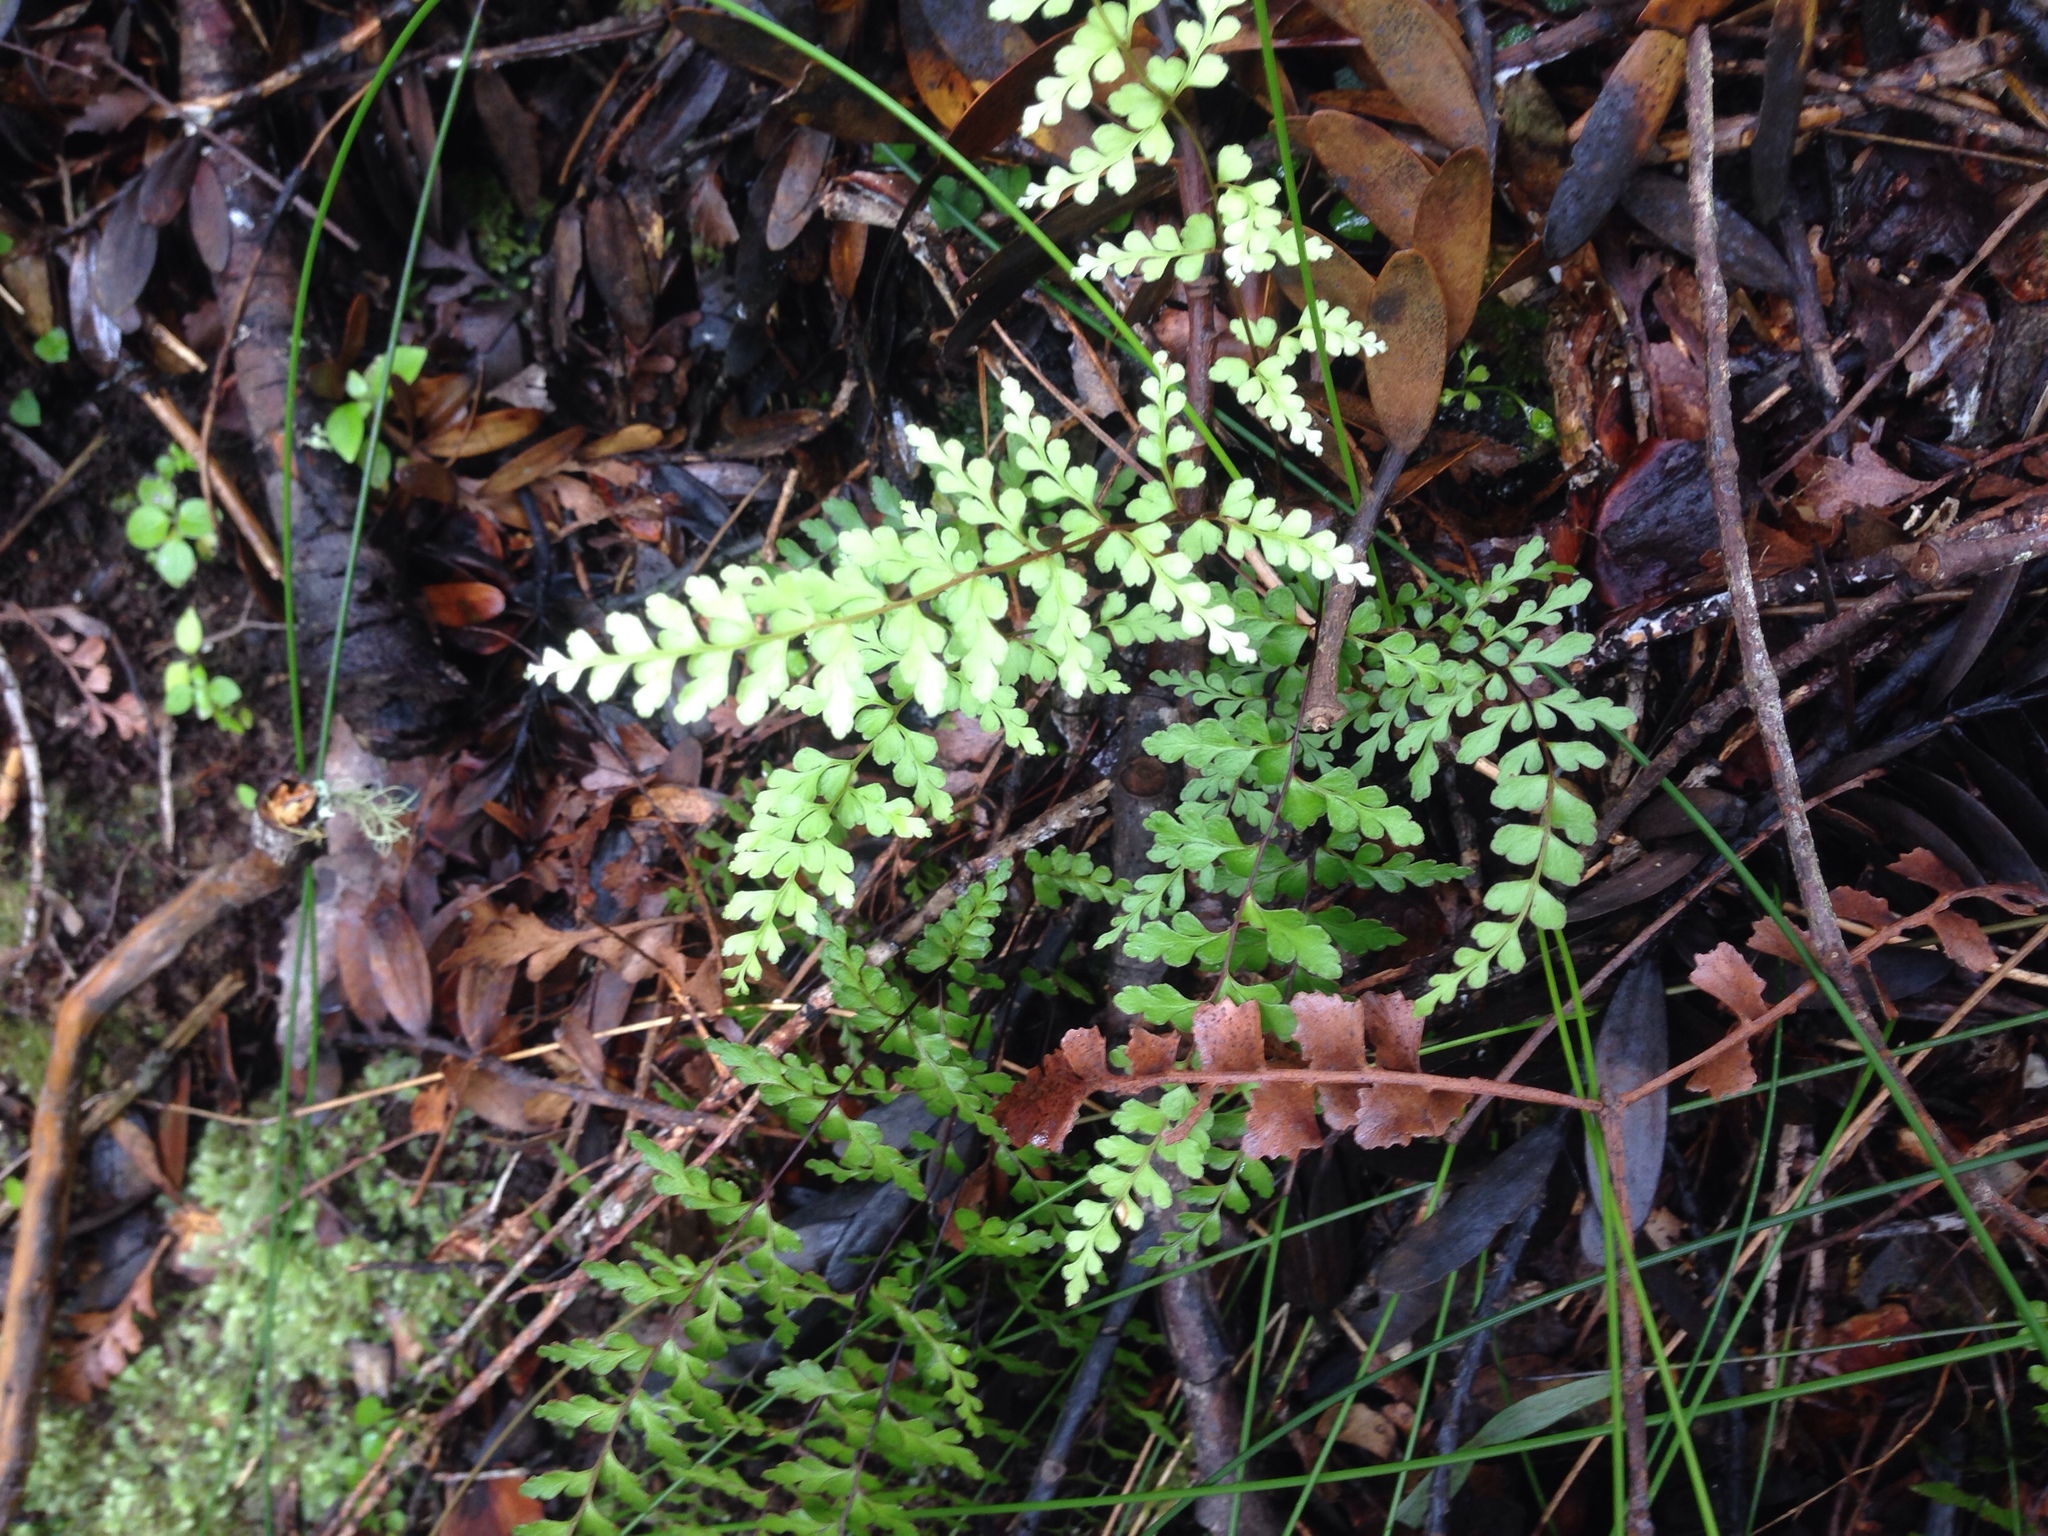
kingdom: Plantae
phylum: Tracheophyta
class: Polypodiopsida
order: Polypodiales
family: Lindsaeaceae
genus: Lindsaea
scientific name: Lindsaea trichomanoides
